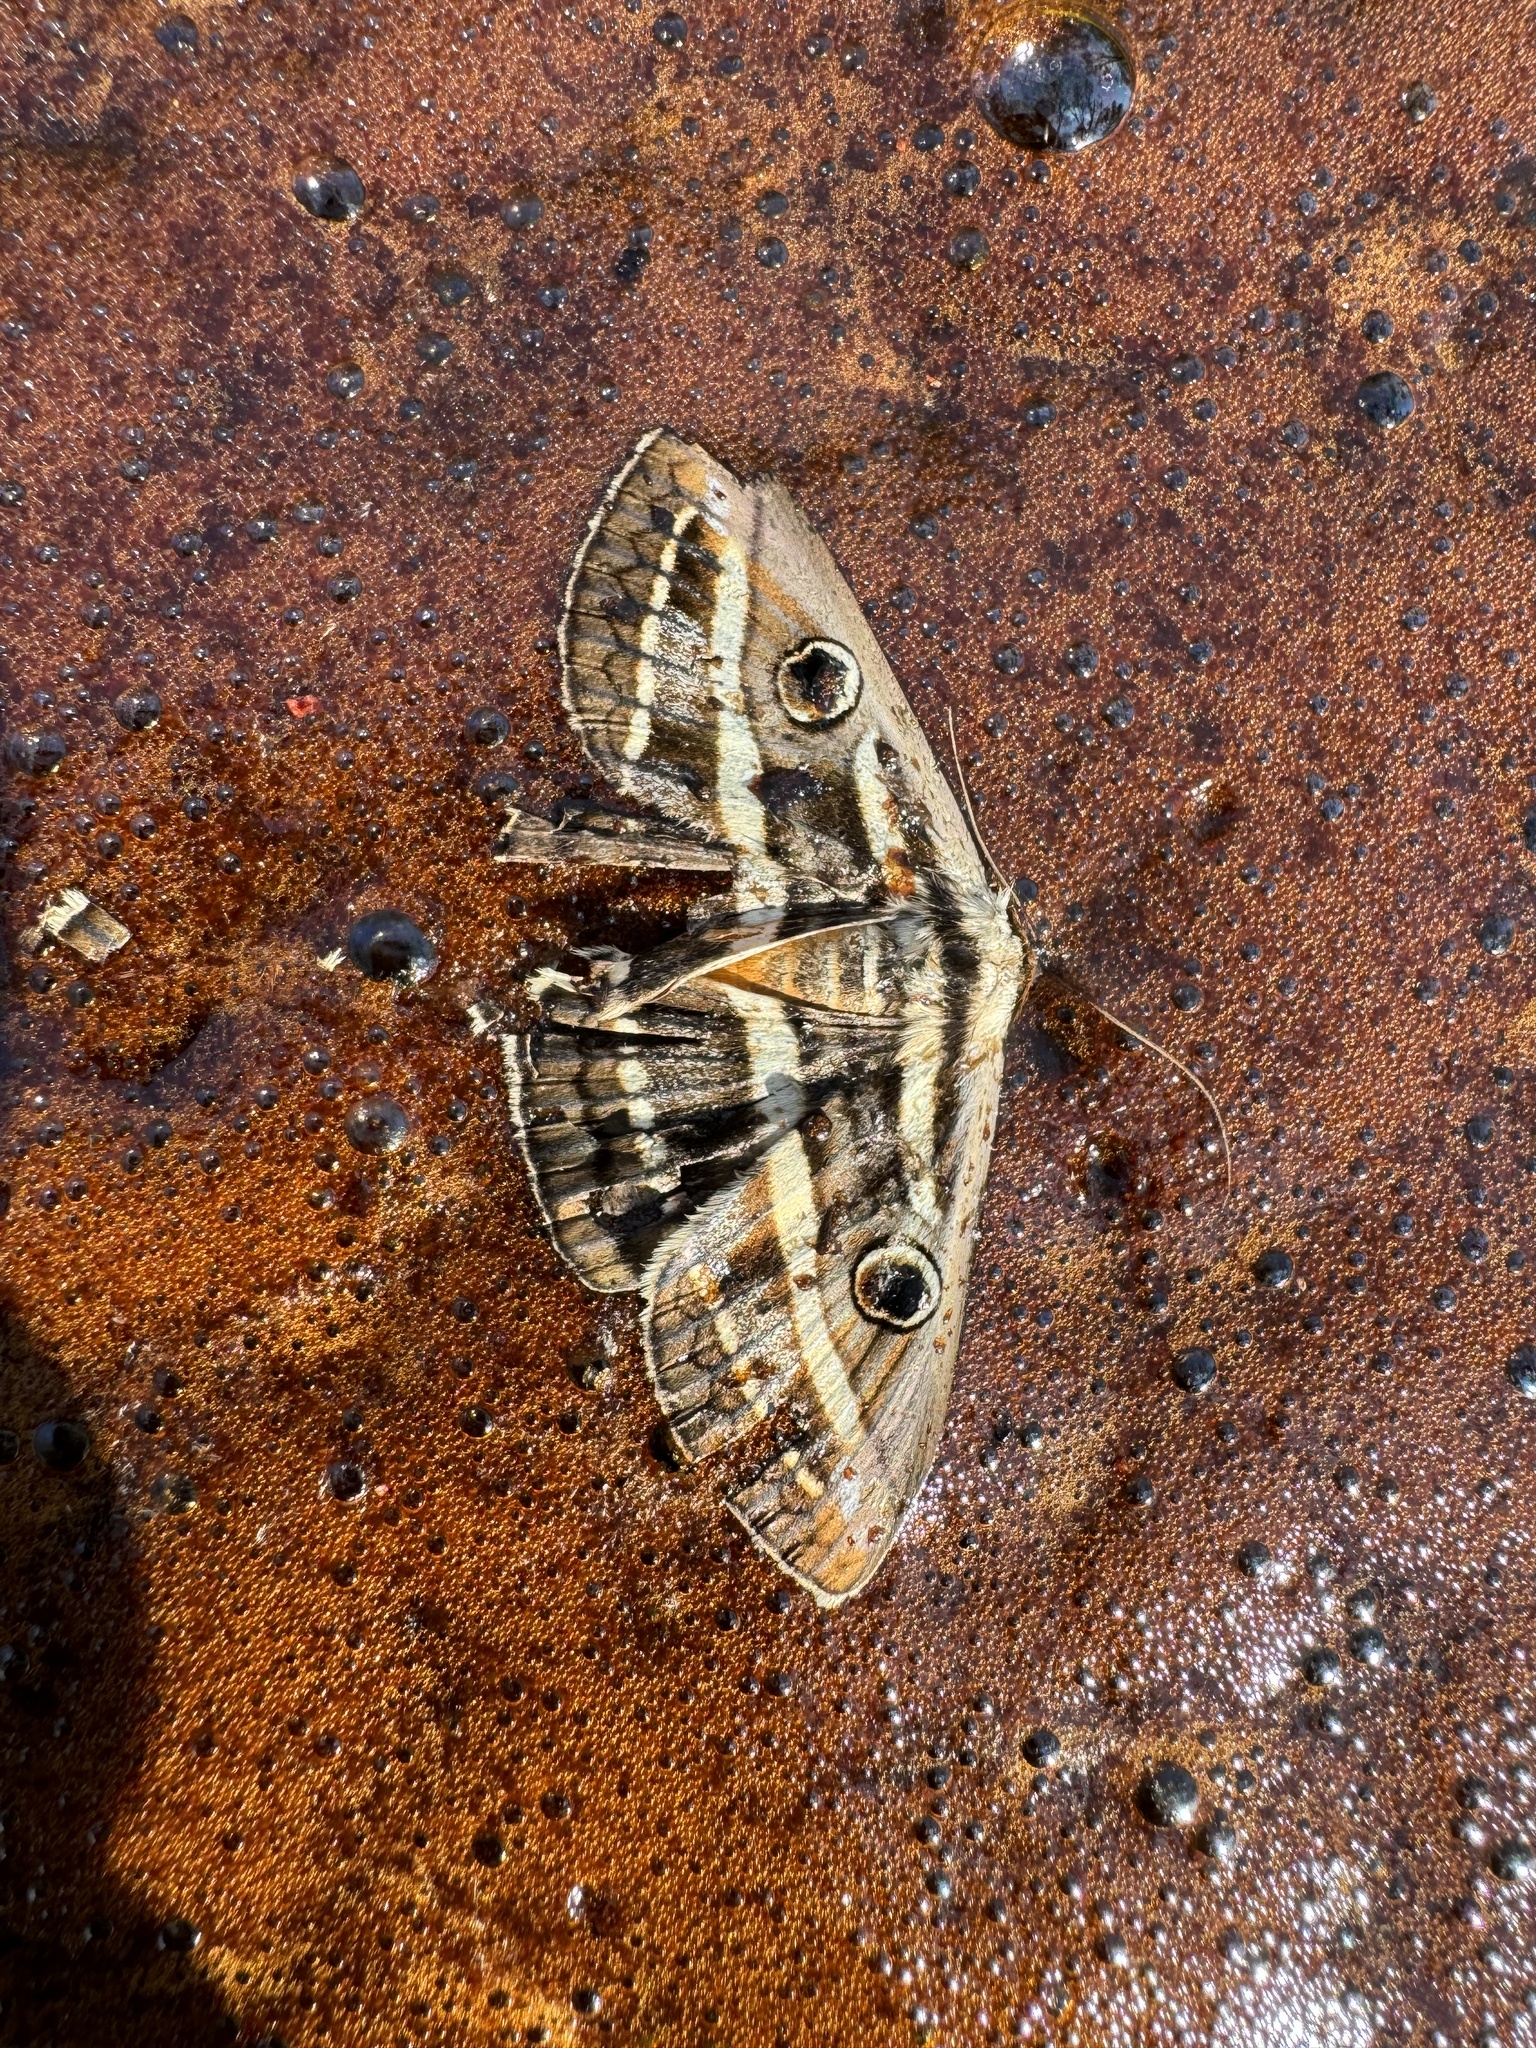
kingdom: Animalia
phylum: Arthropoda
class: Insecta
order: Lepidoptera
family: Erebidae
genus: Donuca
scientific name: Donuca orbigera
